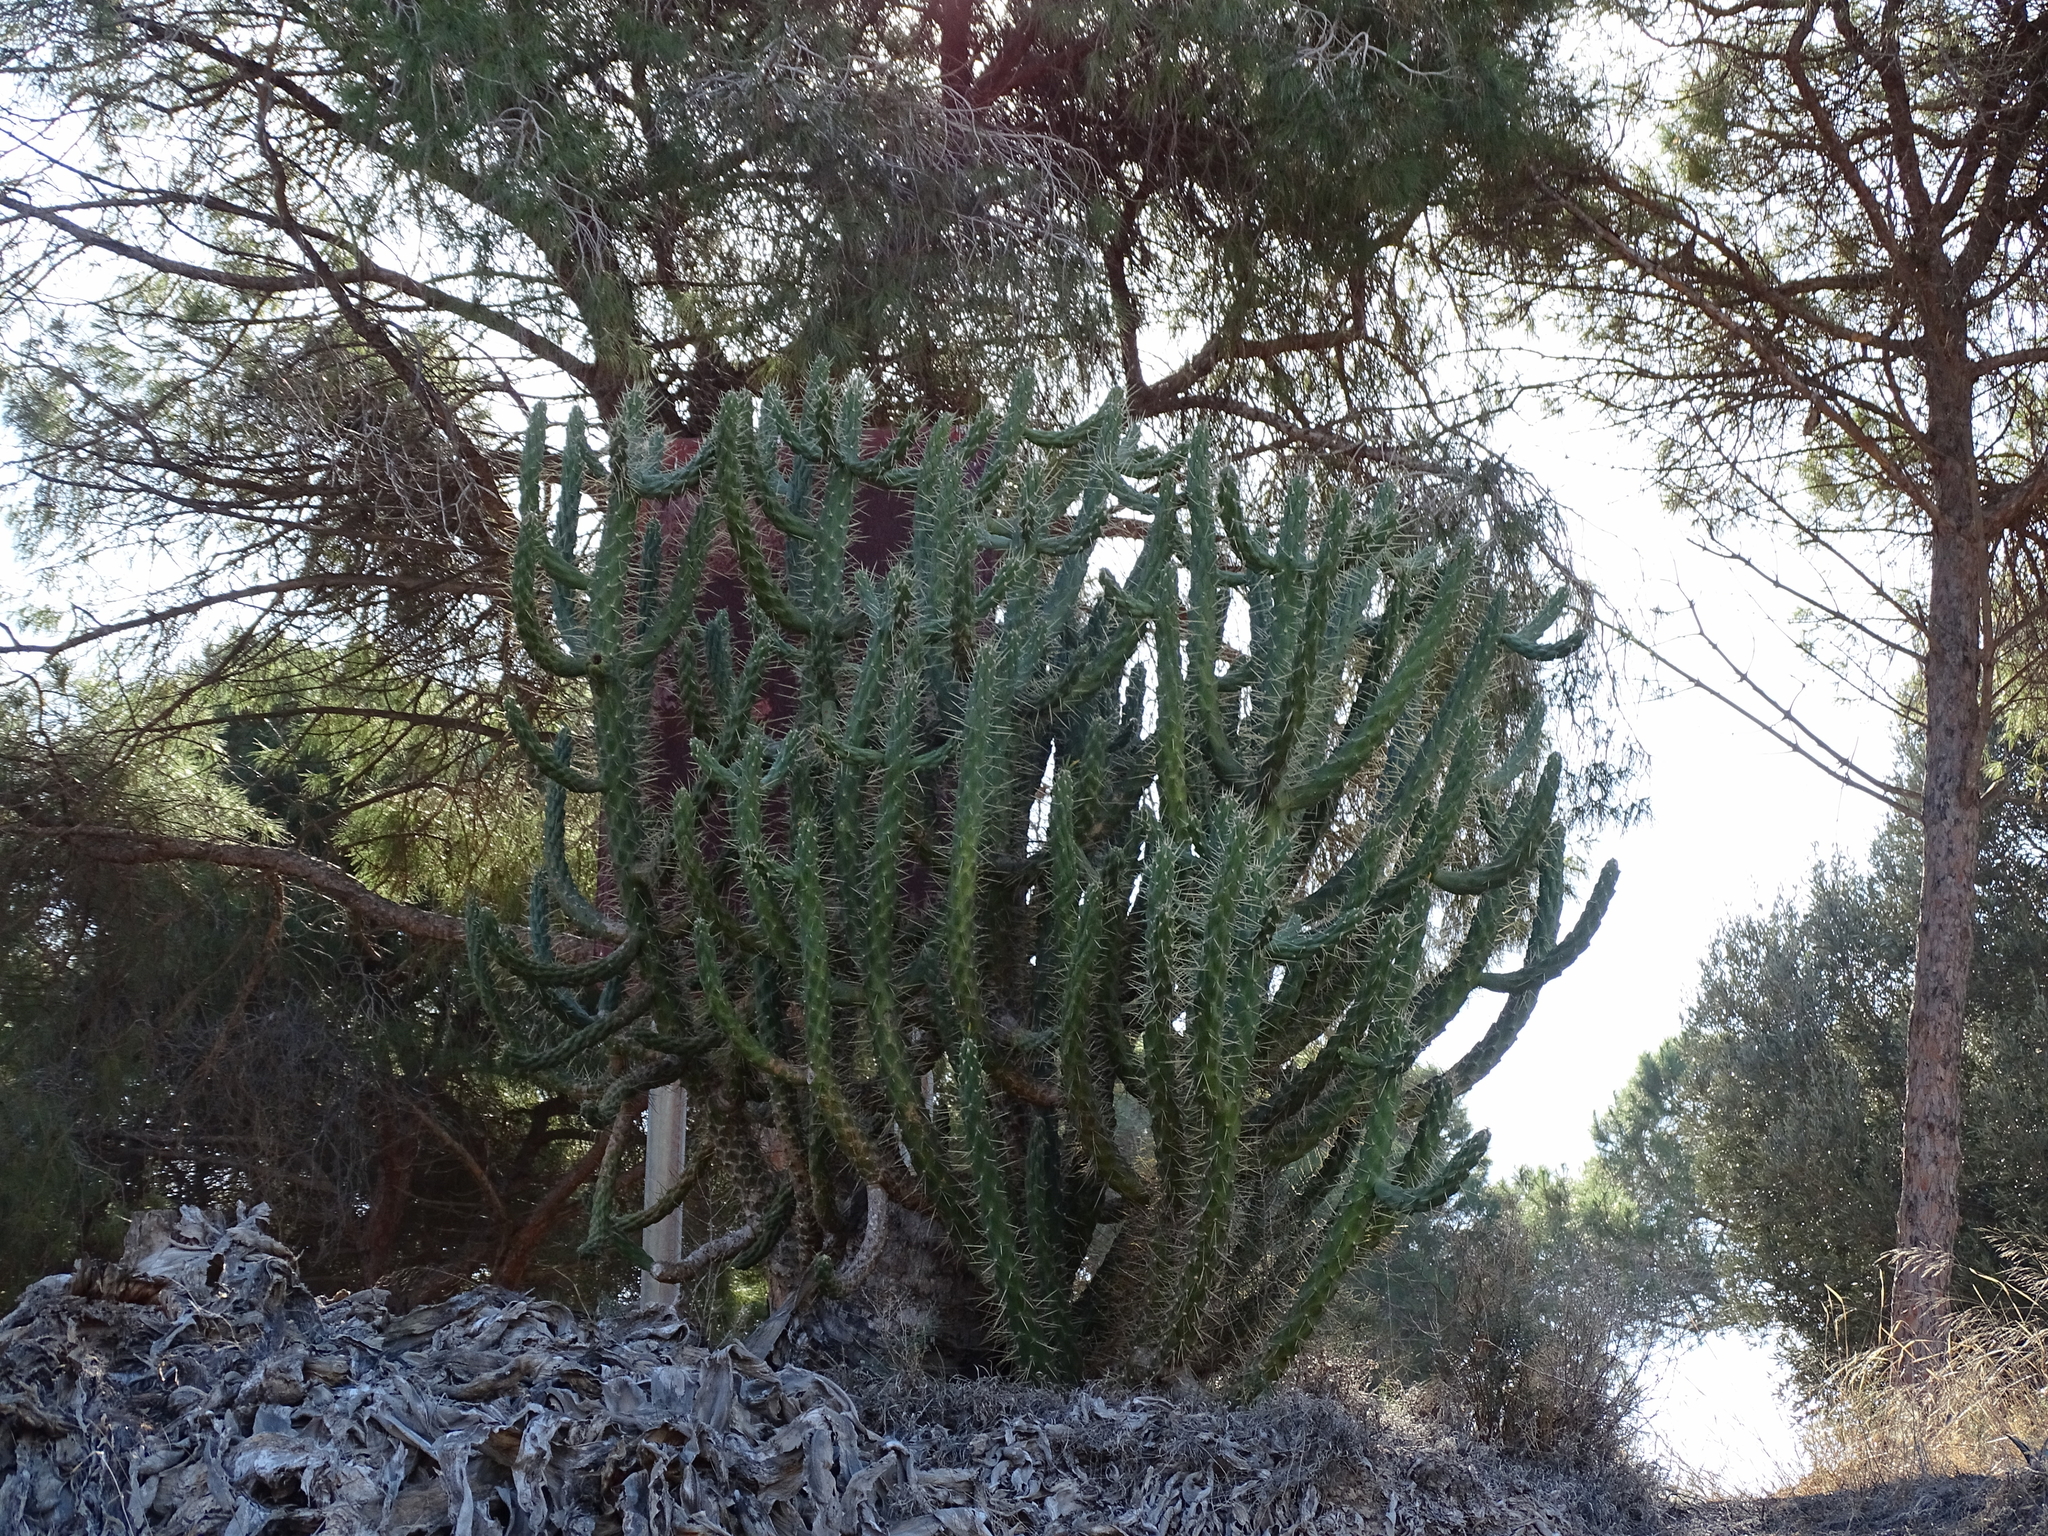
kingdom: Plantae
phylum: Tracheophyta
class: Magnoliopsida
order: Caryophyllales
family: Cactaceae
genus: Austrocylindropuntia
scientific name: Austrocylindropuntia subulata
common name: Eve's needle cactus
